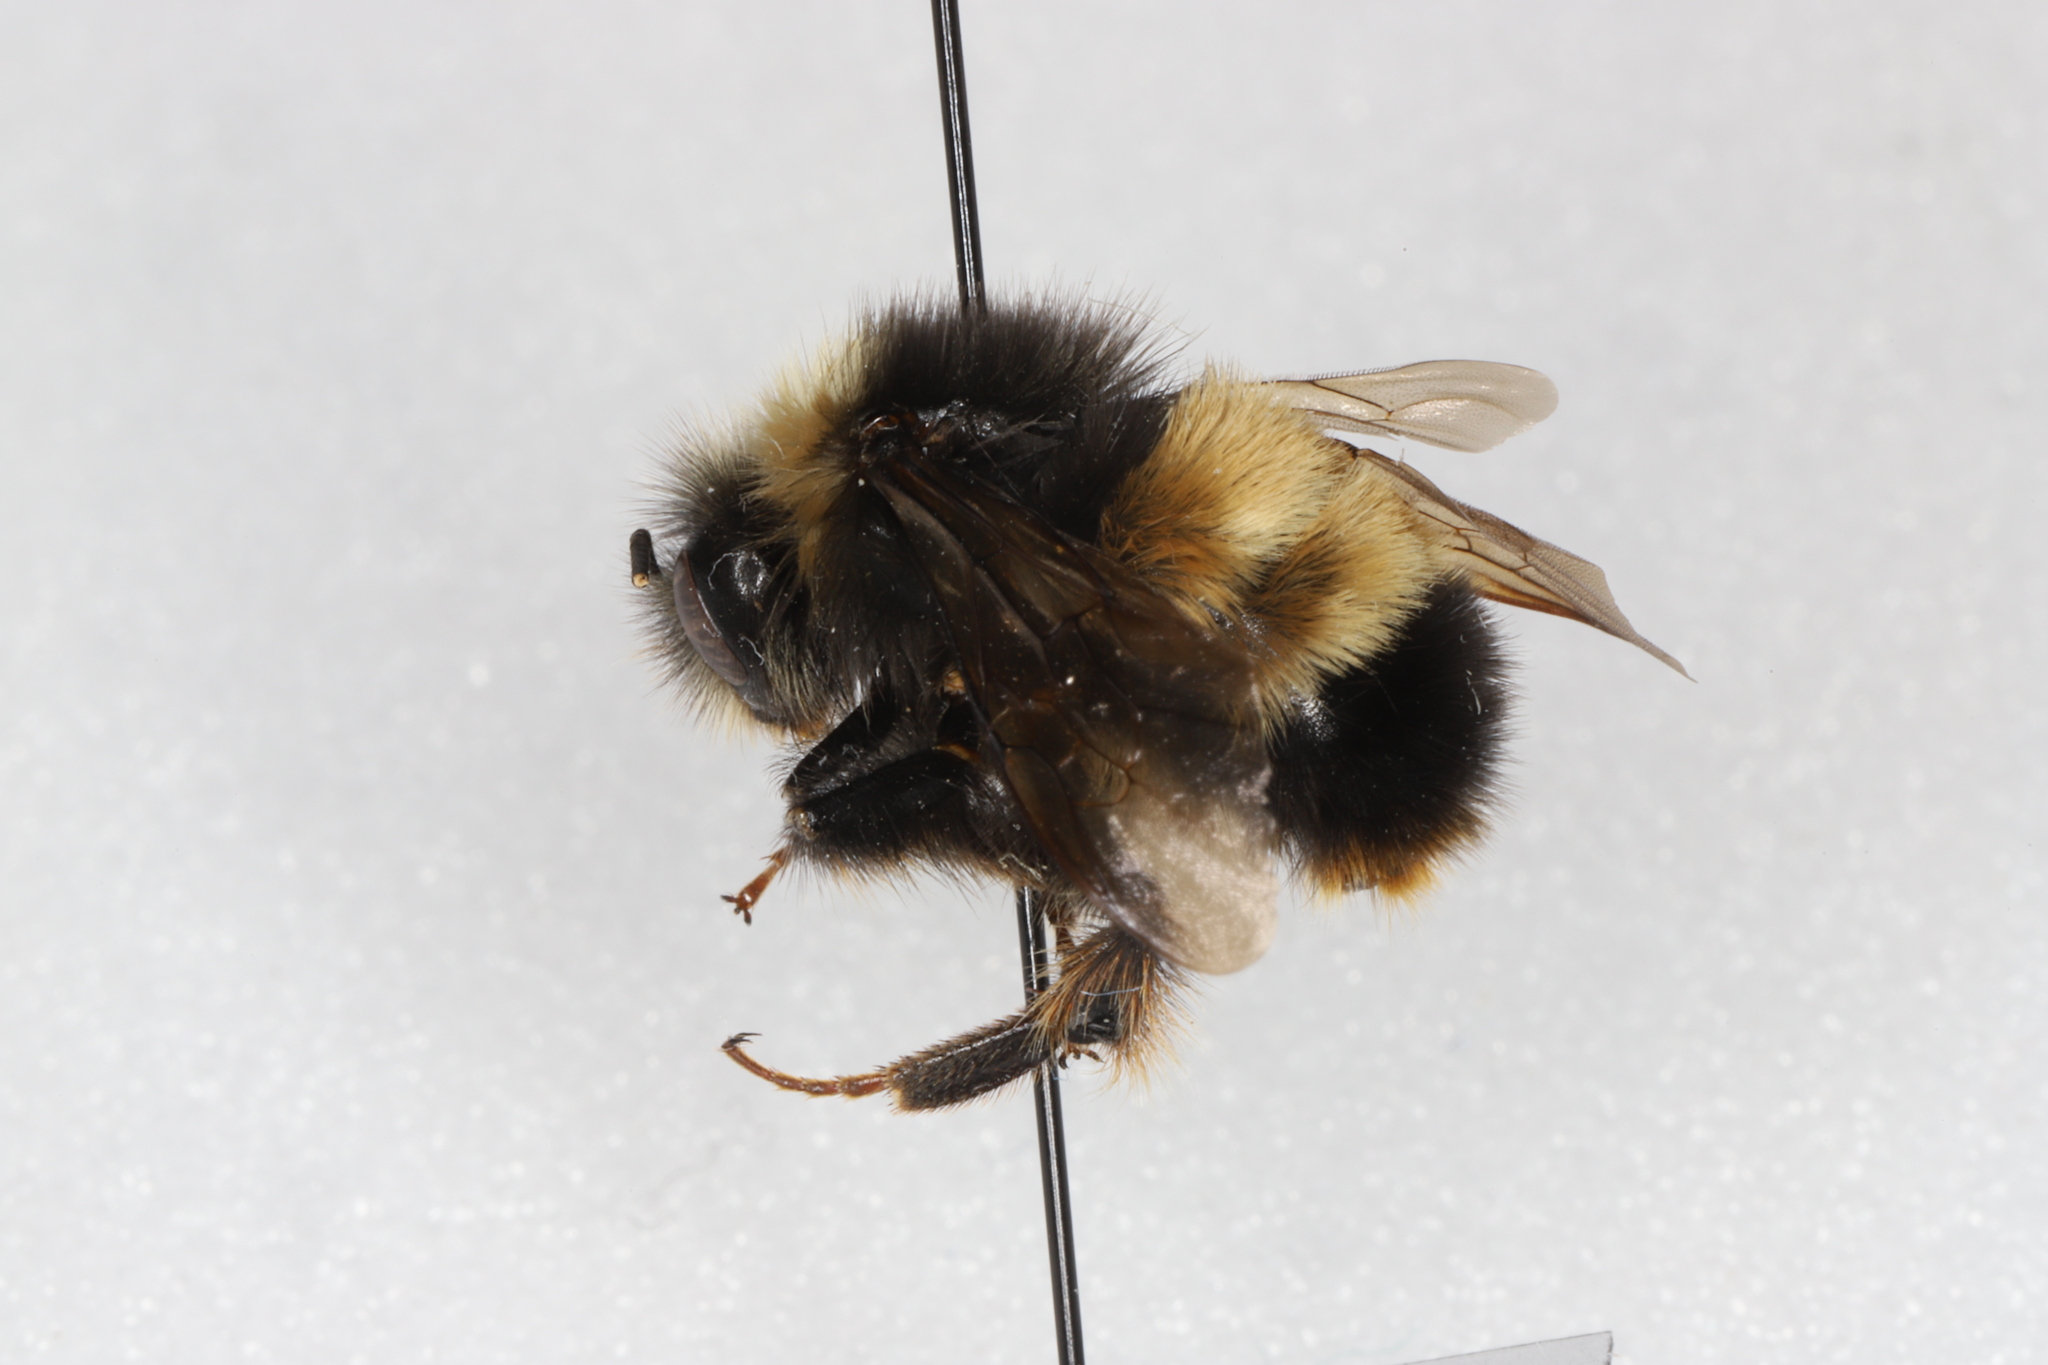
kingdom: Animalia
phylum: Arthropoda
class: Insecta
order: Hymenoptera
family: Apidae
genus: Bombus
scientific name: Bombus terricola
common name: Yellow-banded bumble bee
